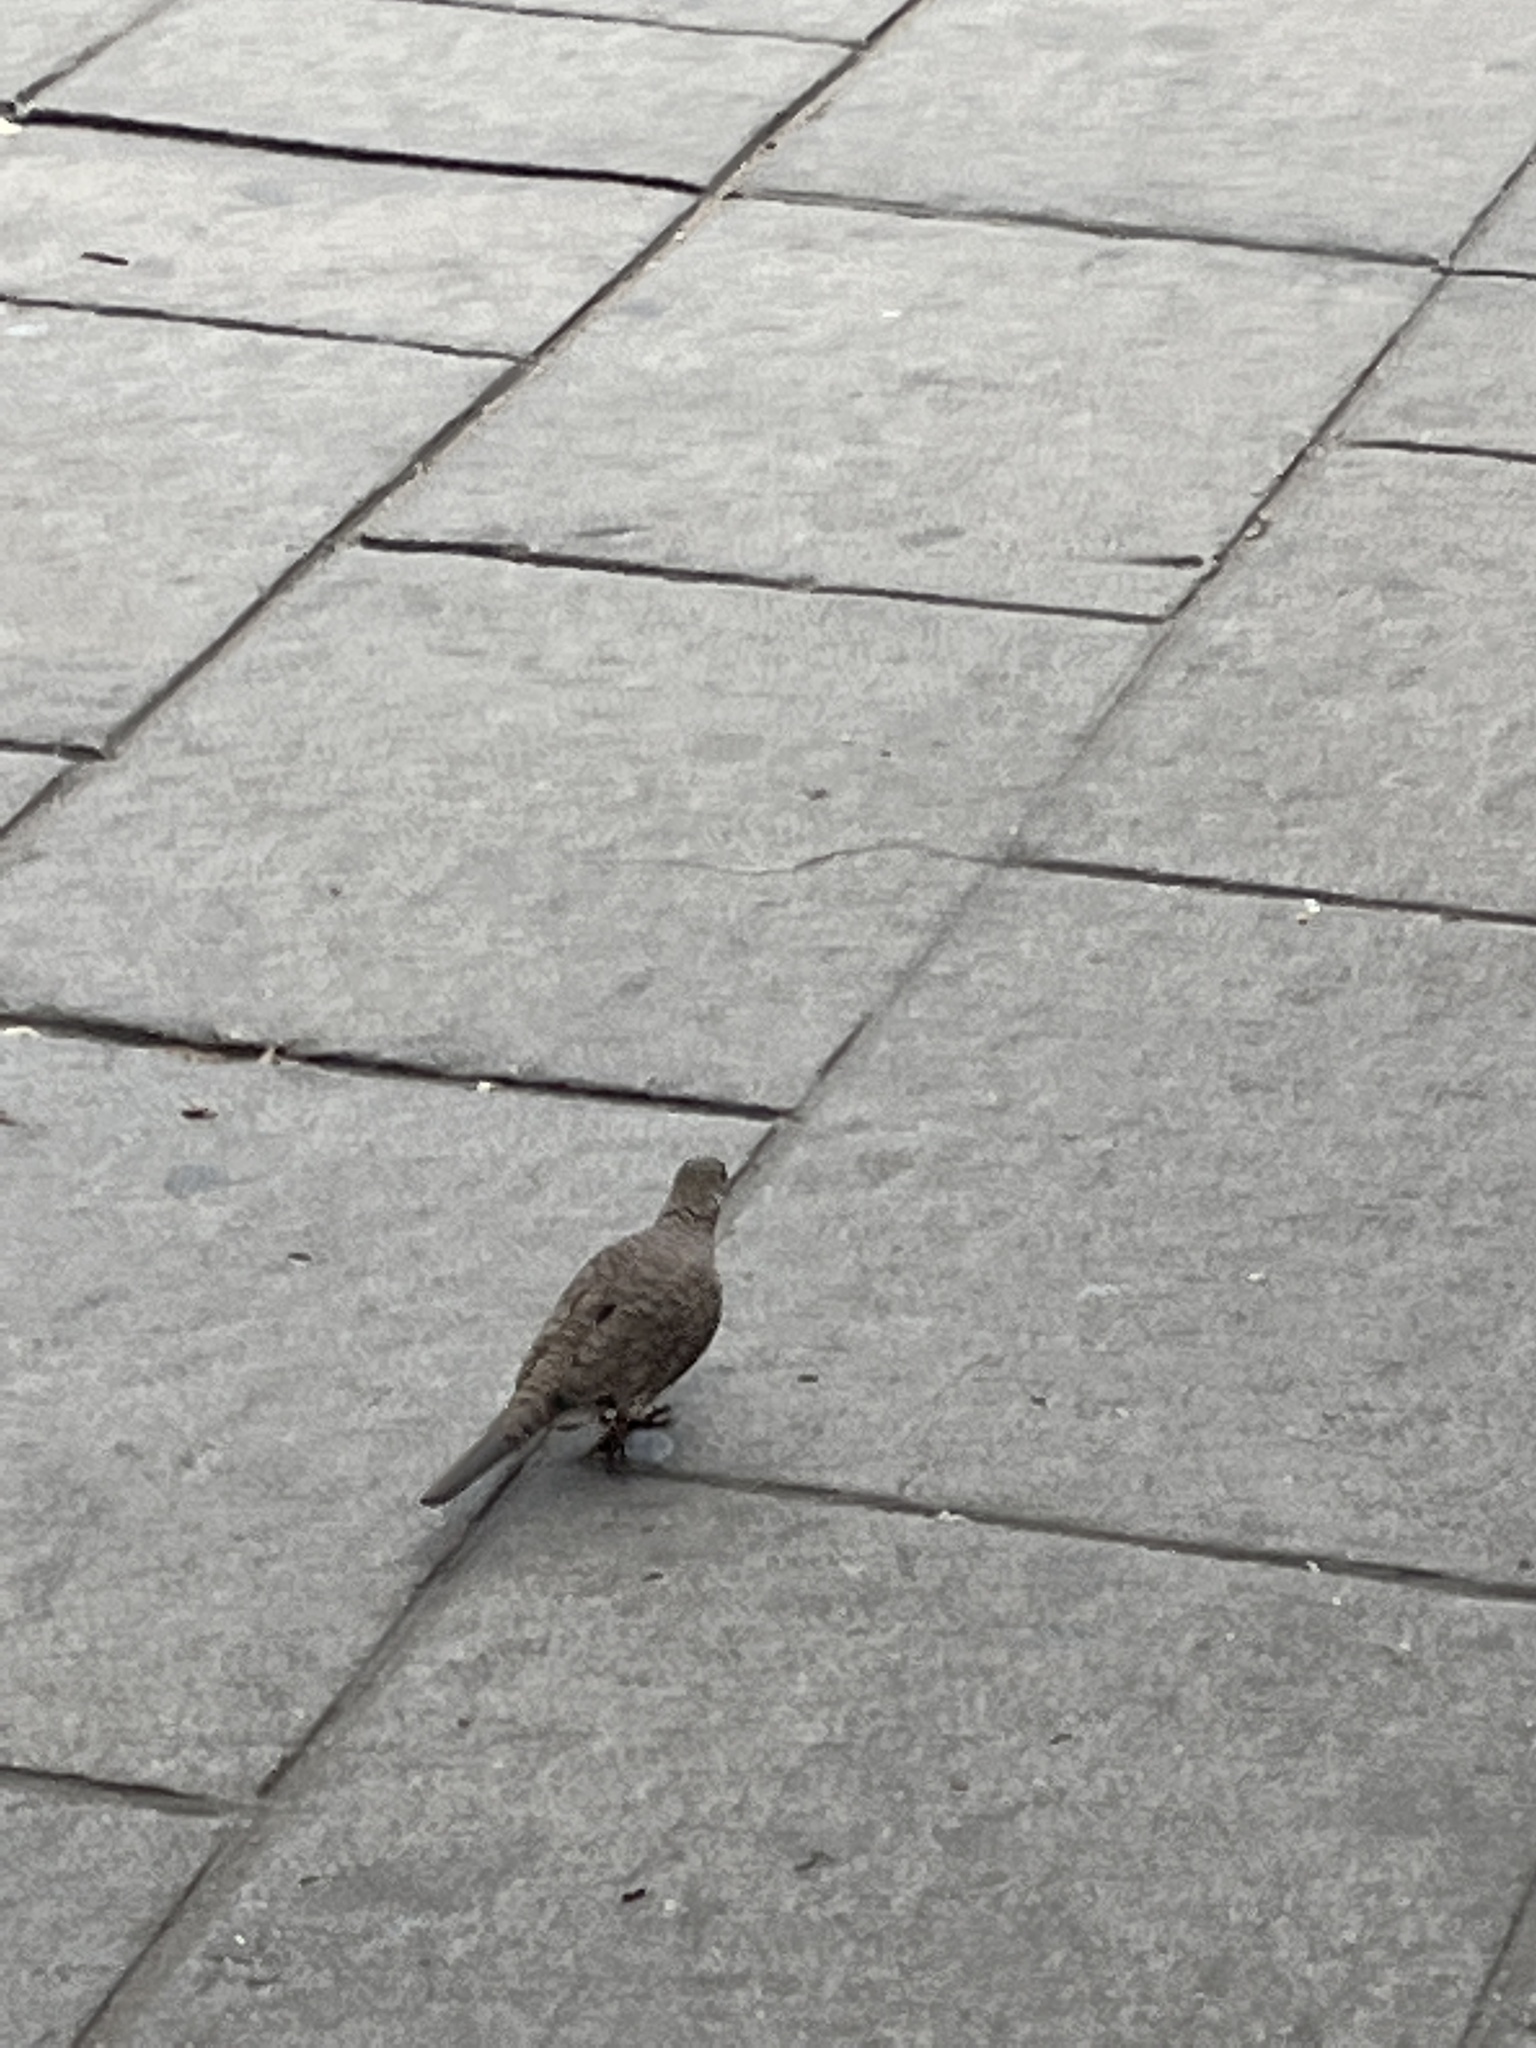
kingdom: Animalia
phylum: Chordata
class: Aves
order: Columbiformes
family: Columbidae
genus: Columbina
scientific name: Columbina inca
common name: Inca dove
